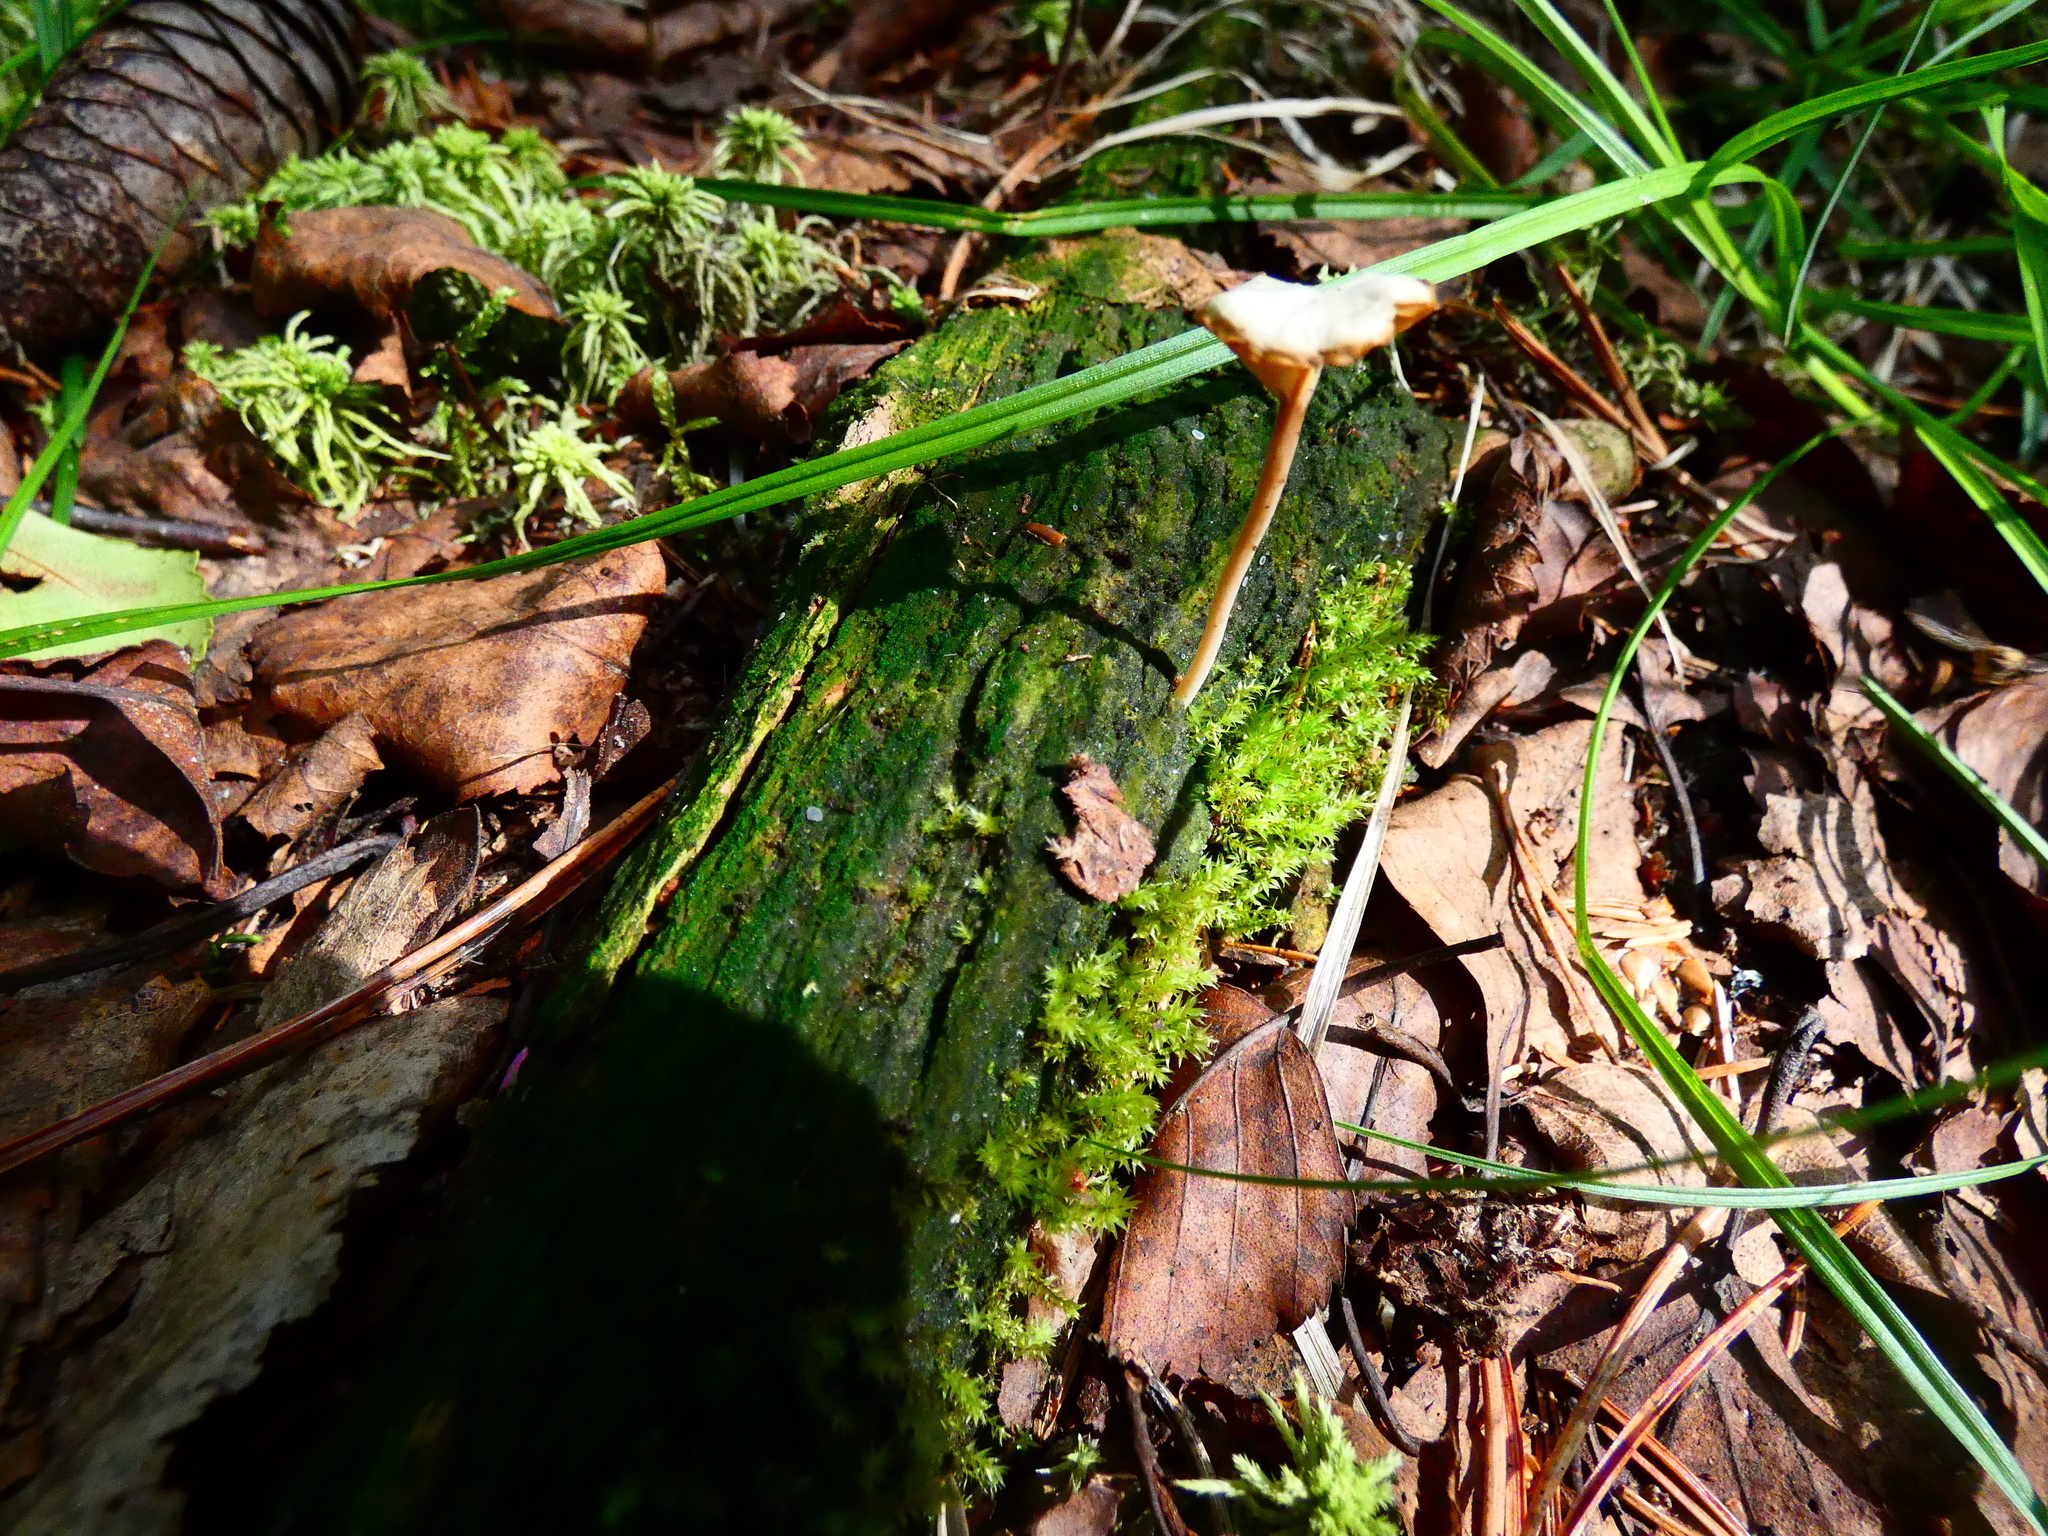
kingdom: Fungi
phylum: Basidiomycota
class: Agaricomycetes
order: Agaricales
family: Hygrophoraceae
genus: Lichenomphalia
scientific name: Lichenomphalia
